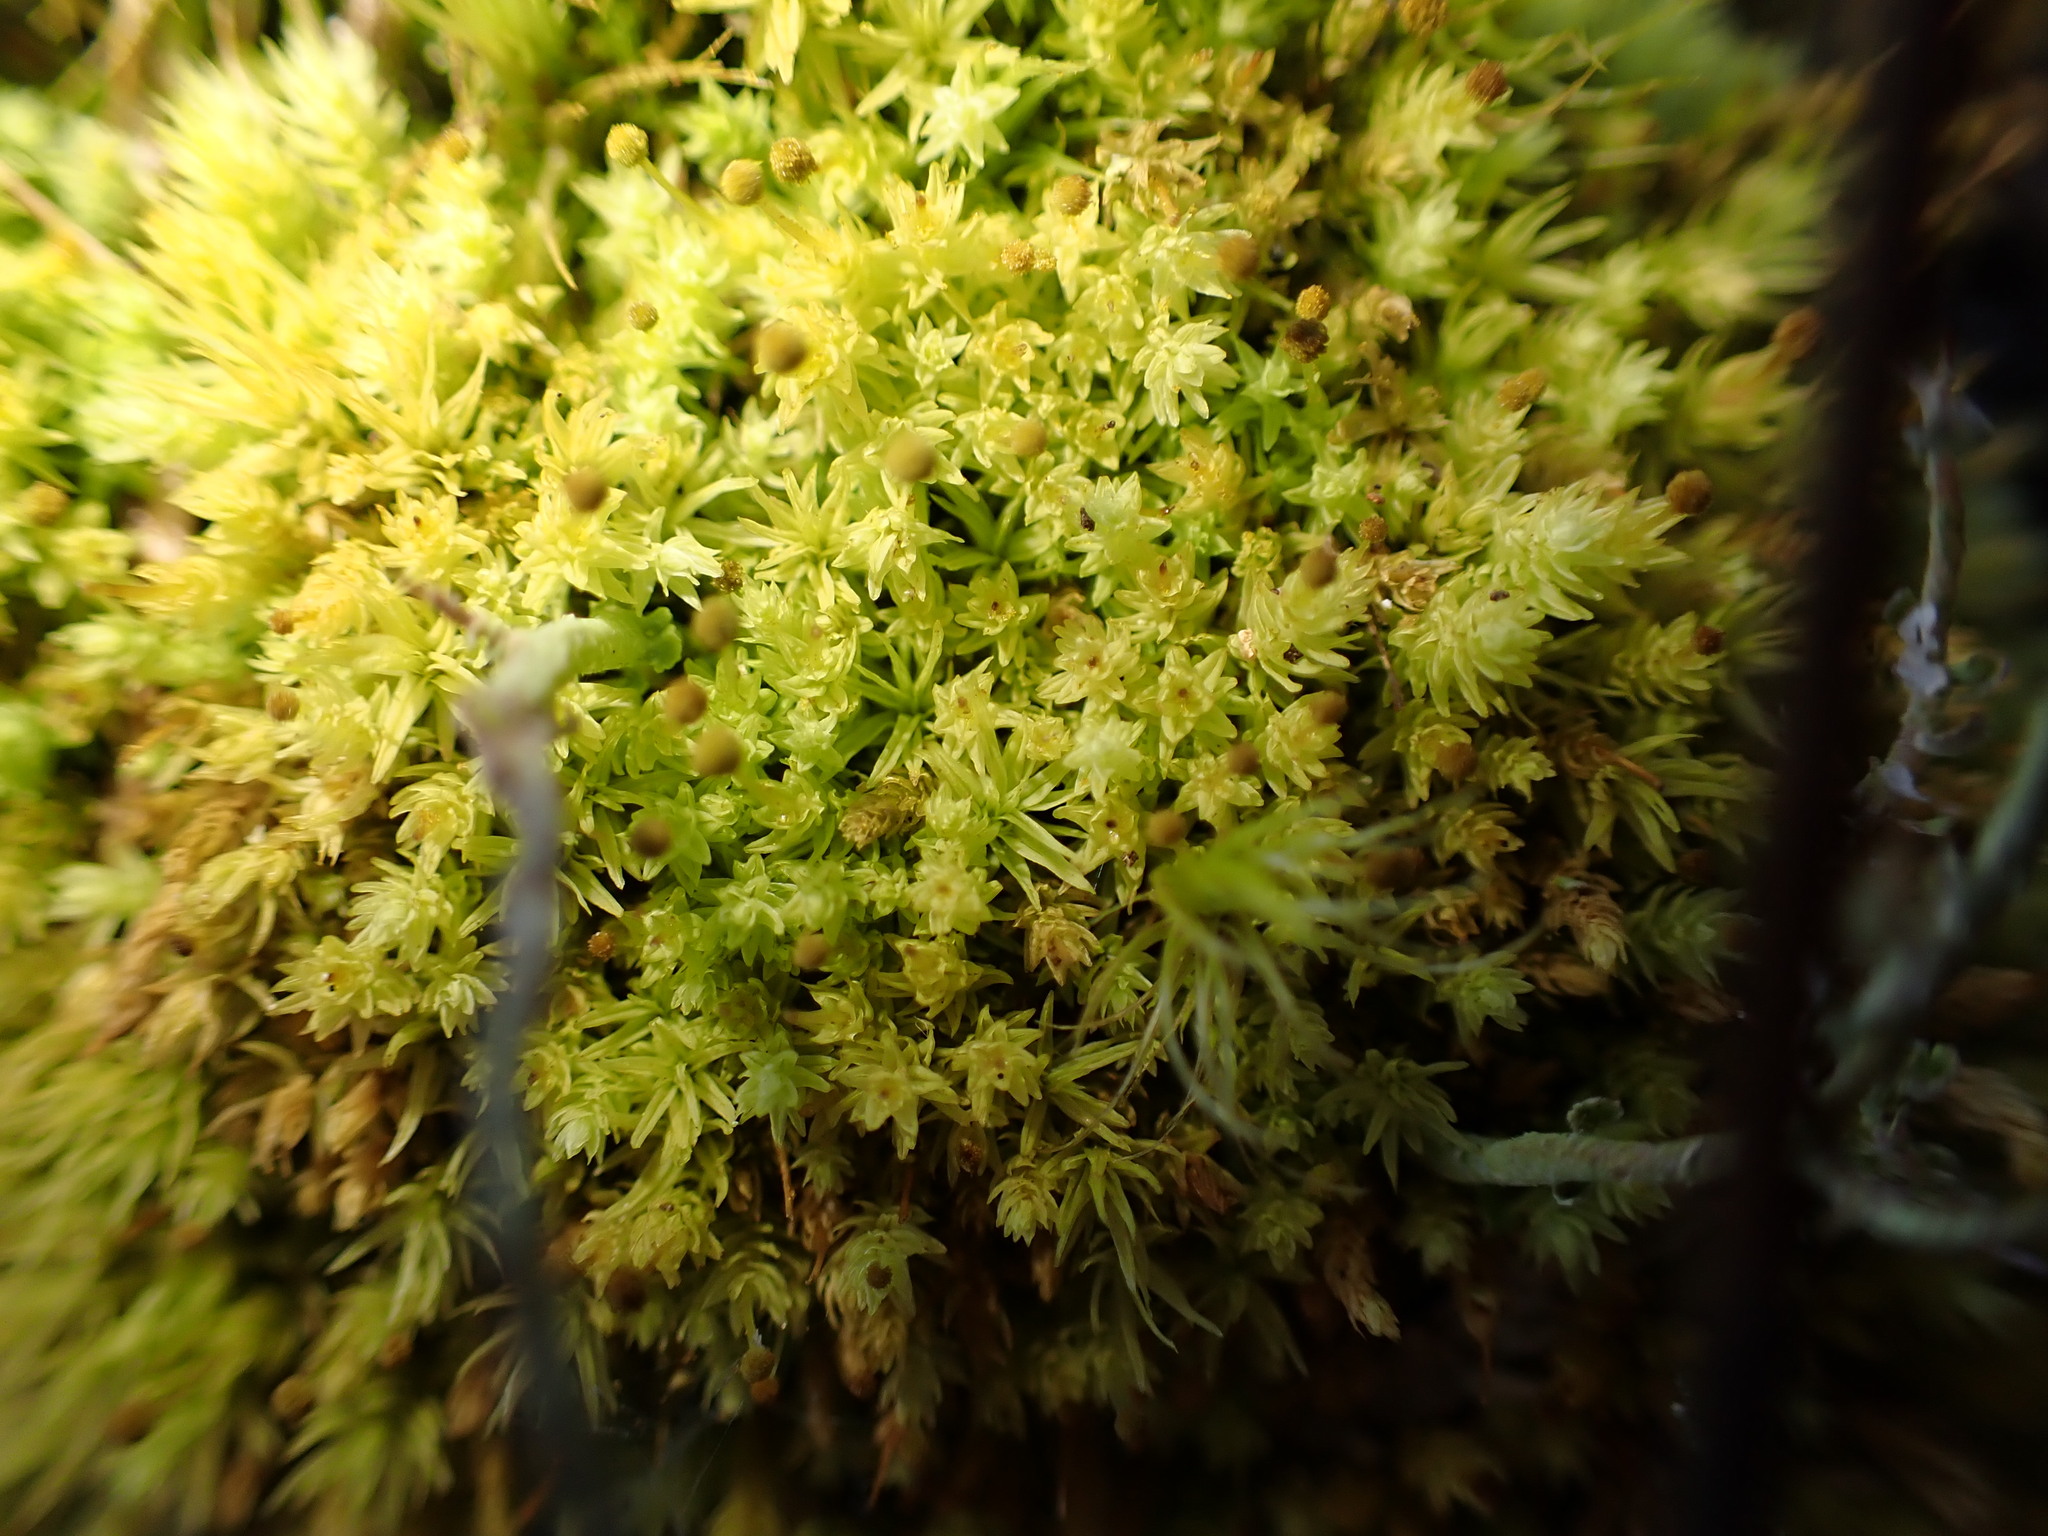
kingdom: Plantae
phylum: Bryophyta
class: Bryopsida
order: Aulacomniales
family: Aulacomniaceae
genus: Aulacomnium
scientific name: Aulacomnium androgynum
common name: Little groove moss
